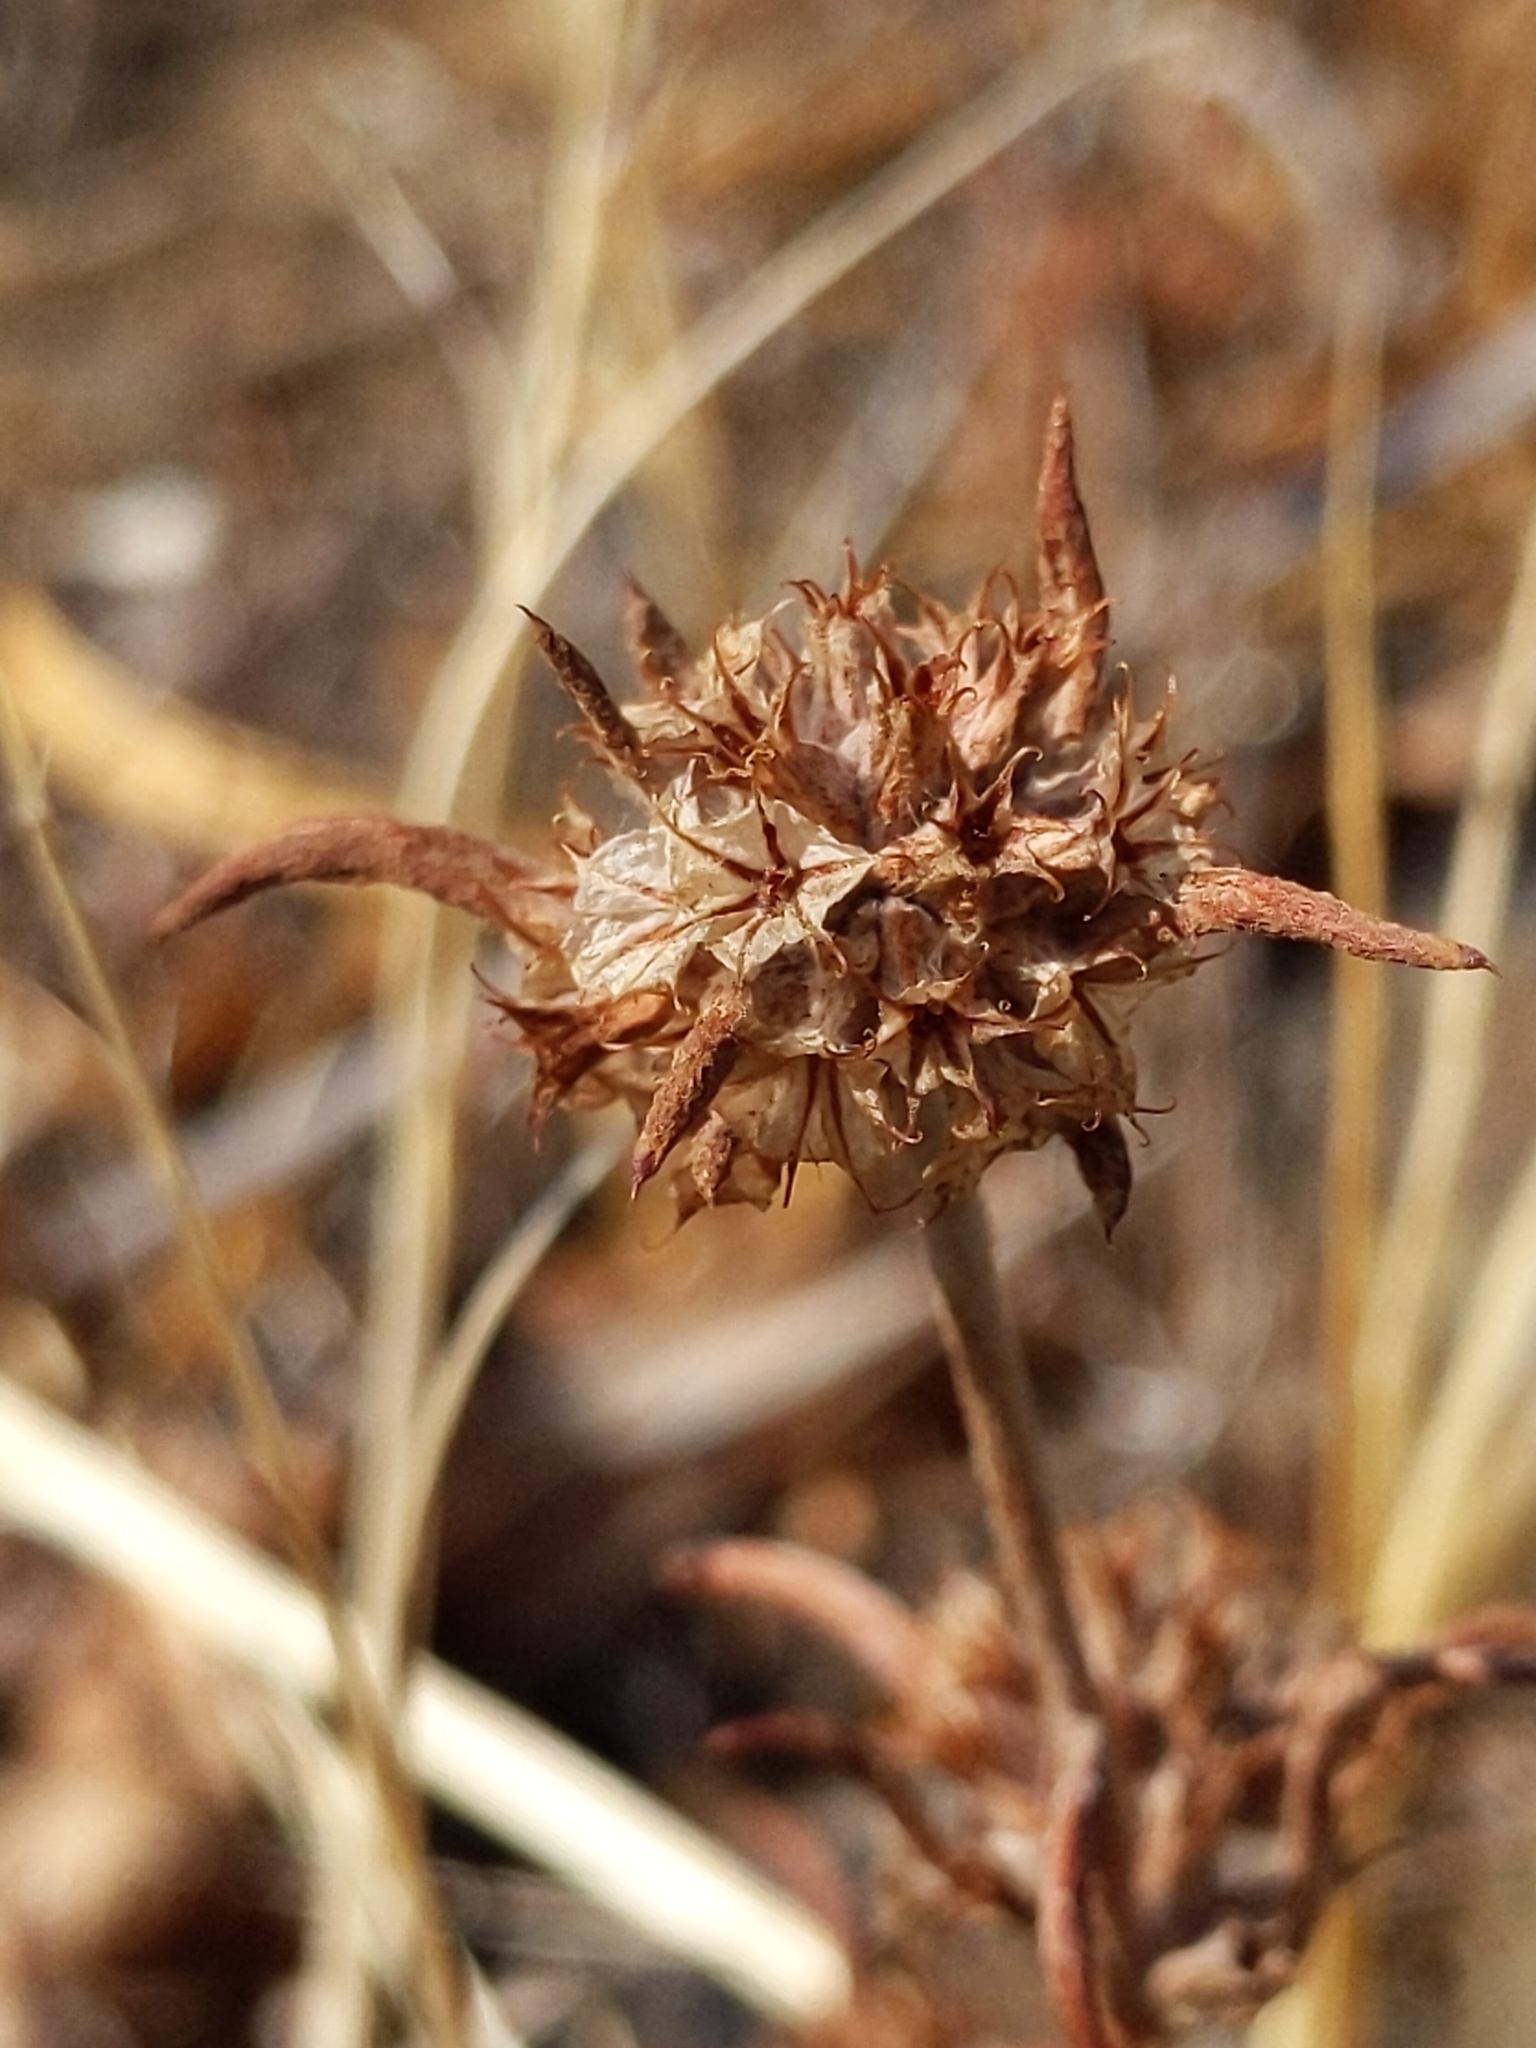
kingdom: Plantae
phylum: Tracheophyta
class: Magnoliopsida
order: Caryophyllales
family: Polygonaceae
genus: Chorizanthe
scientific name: Chorizanthe membranacea
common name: Pink spineflower
